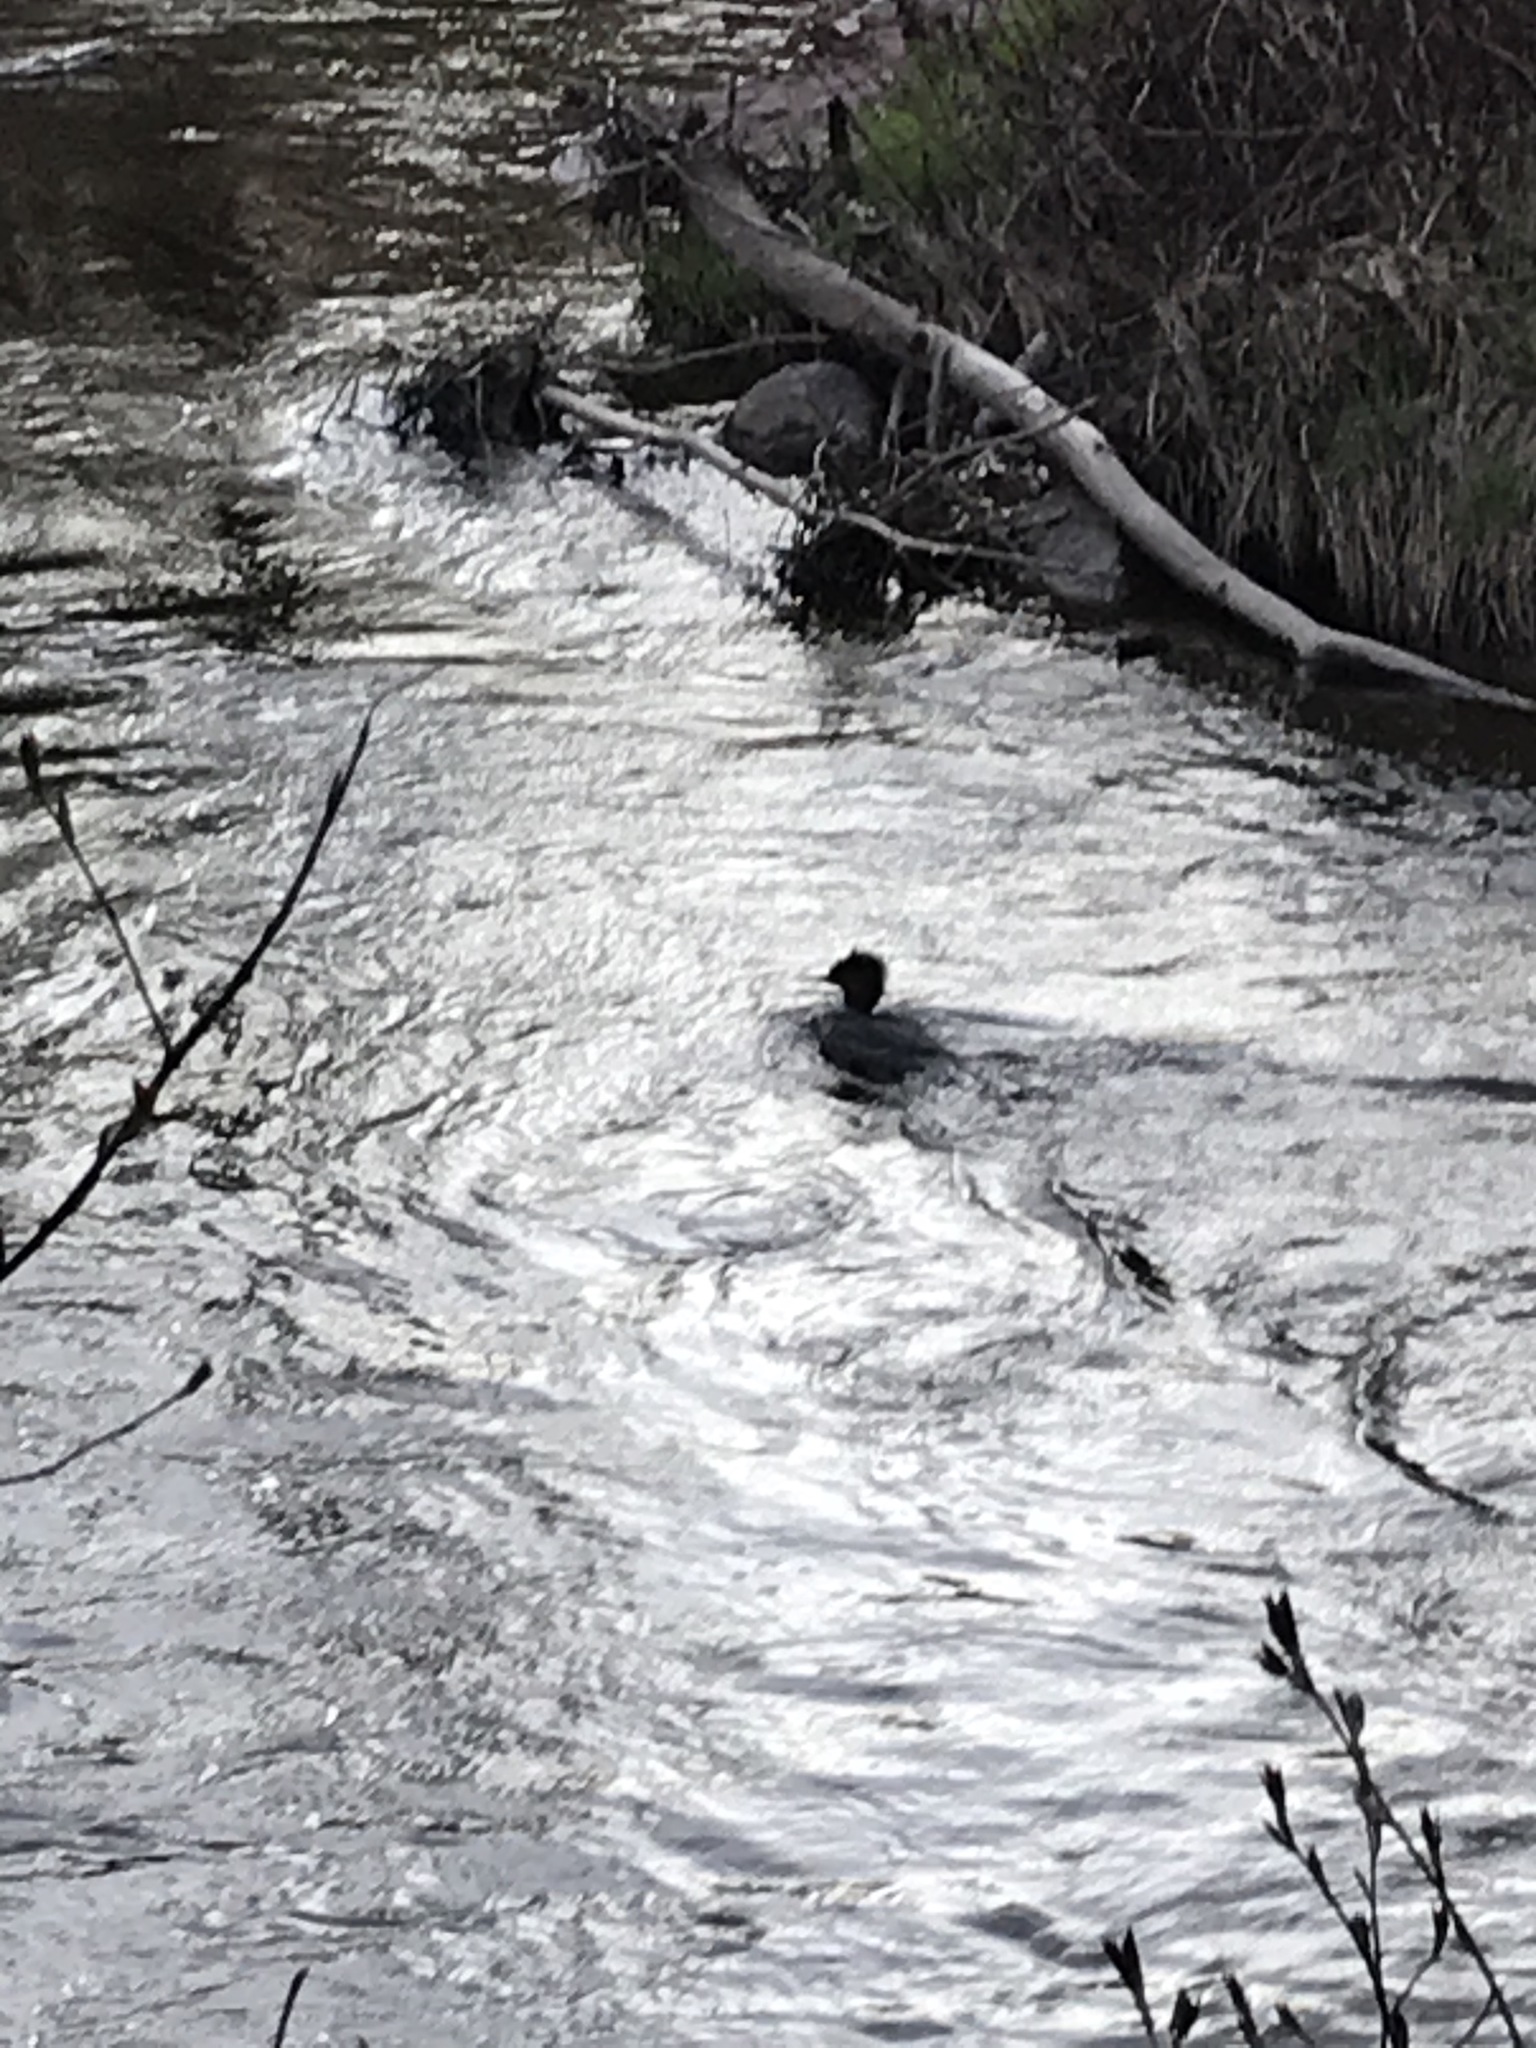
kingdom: Animalia
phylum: Chordata
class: Aves
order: Anseriformes
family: Anatidae
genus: Mergus
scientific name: Mergus serrator
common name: Red-breasted merganser
